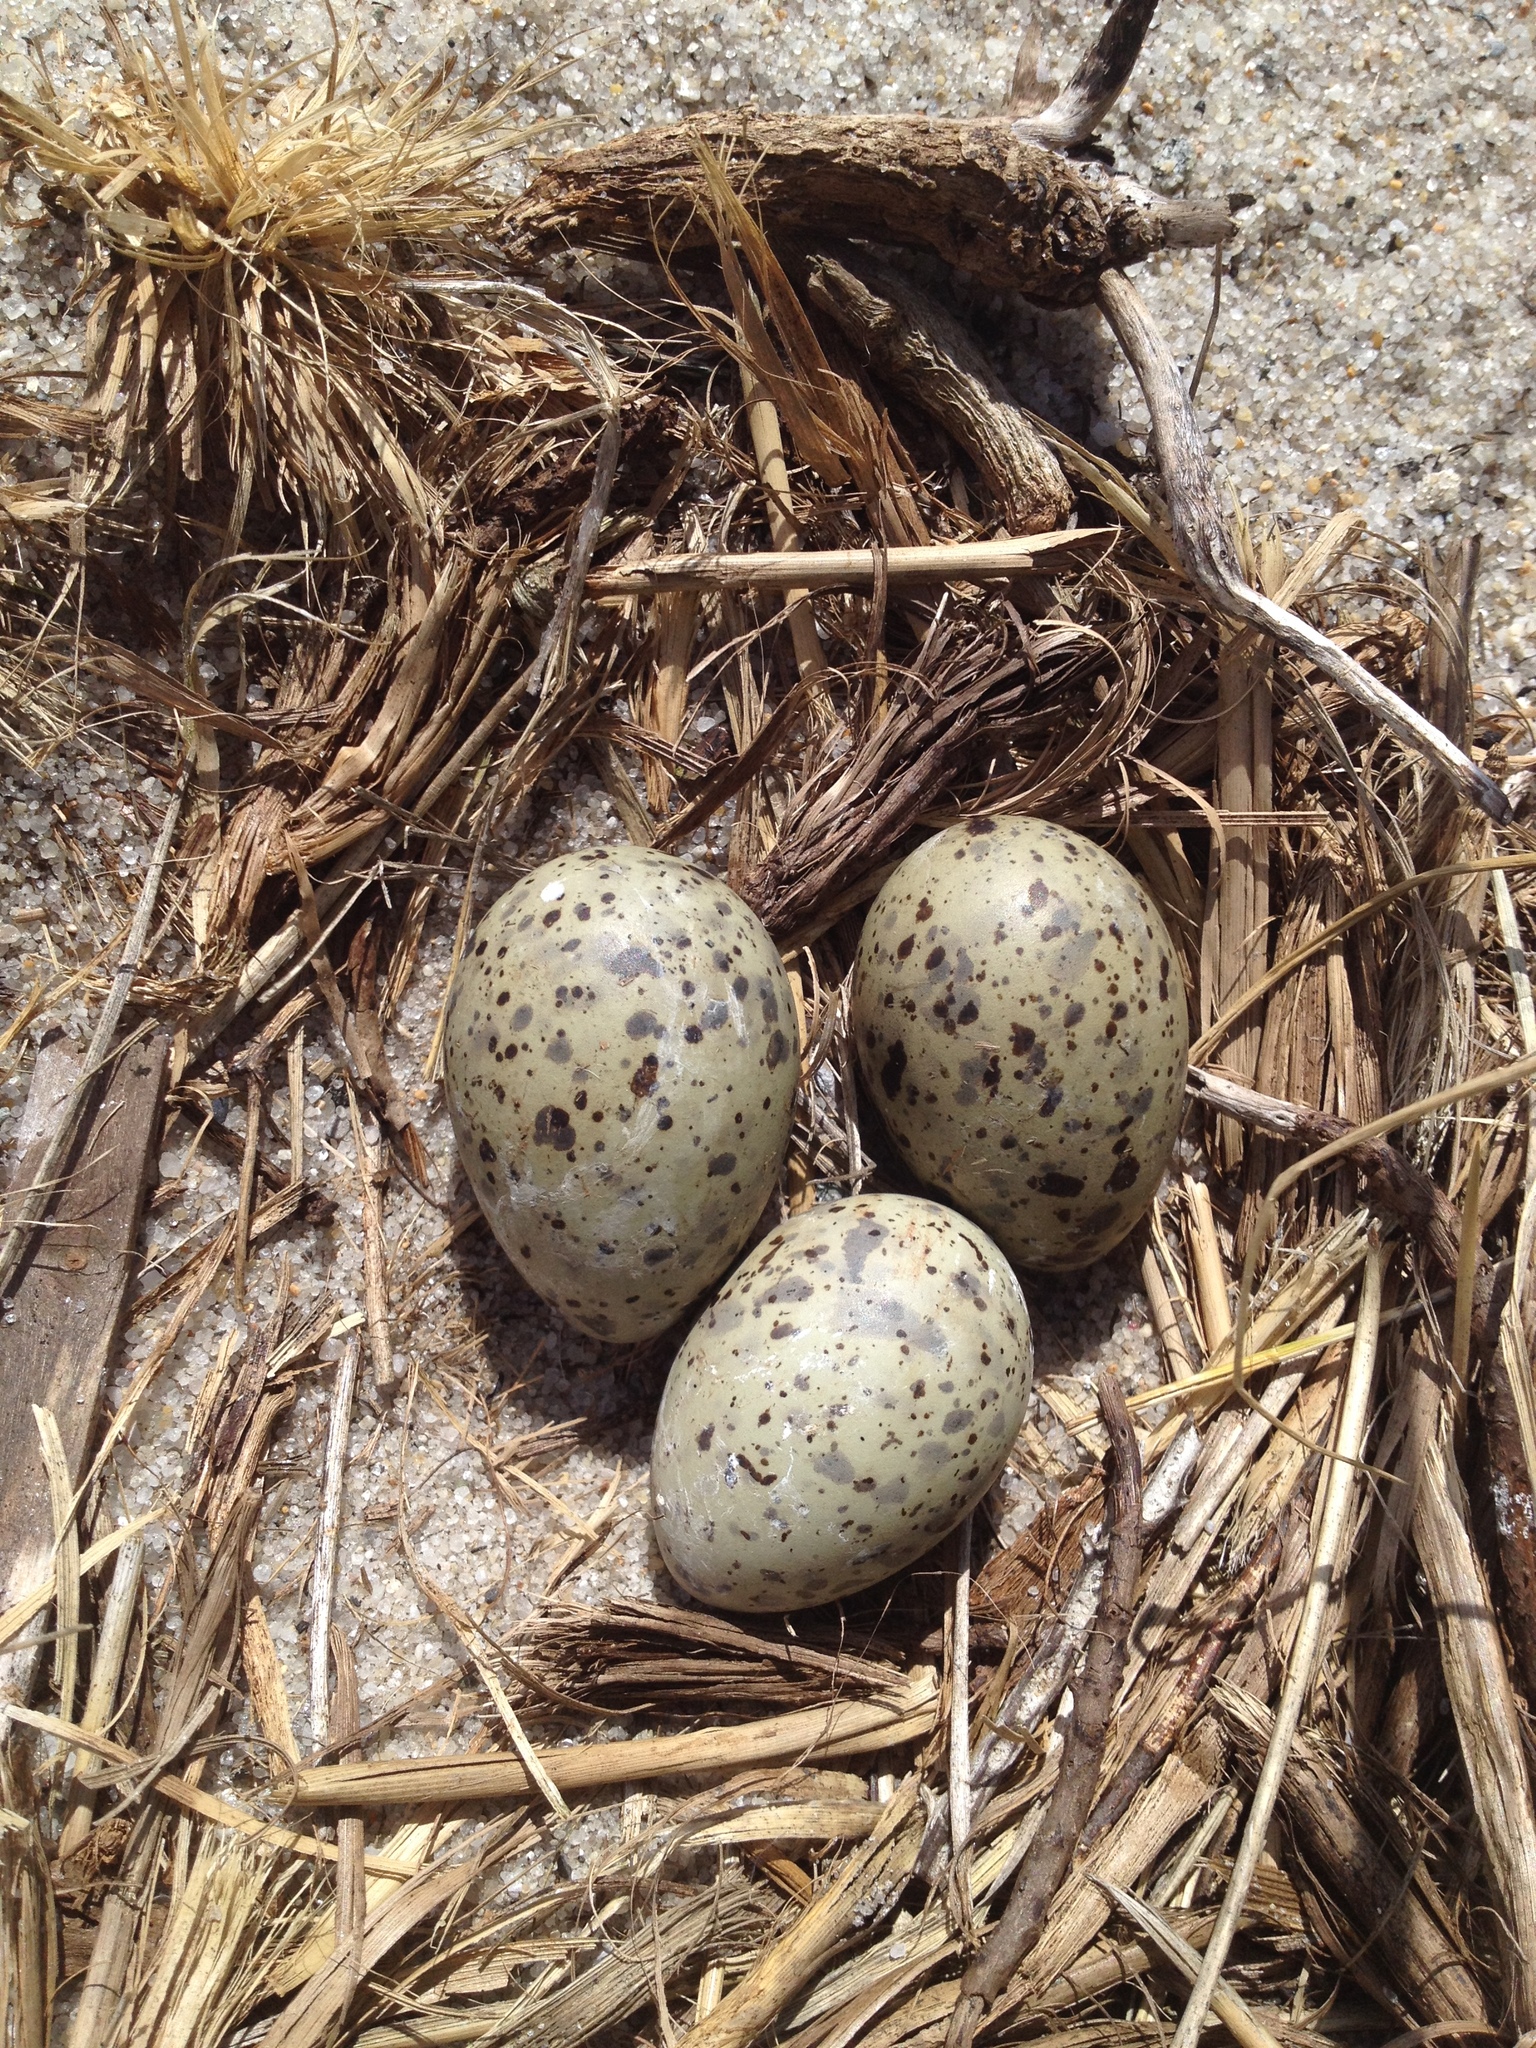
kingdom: Animalia
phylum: Chordata
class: Aves
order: Charadriiformes
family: Laridae
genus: Sterna
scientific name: Sterna hirundo
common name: Common tern
